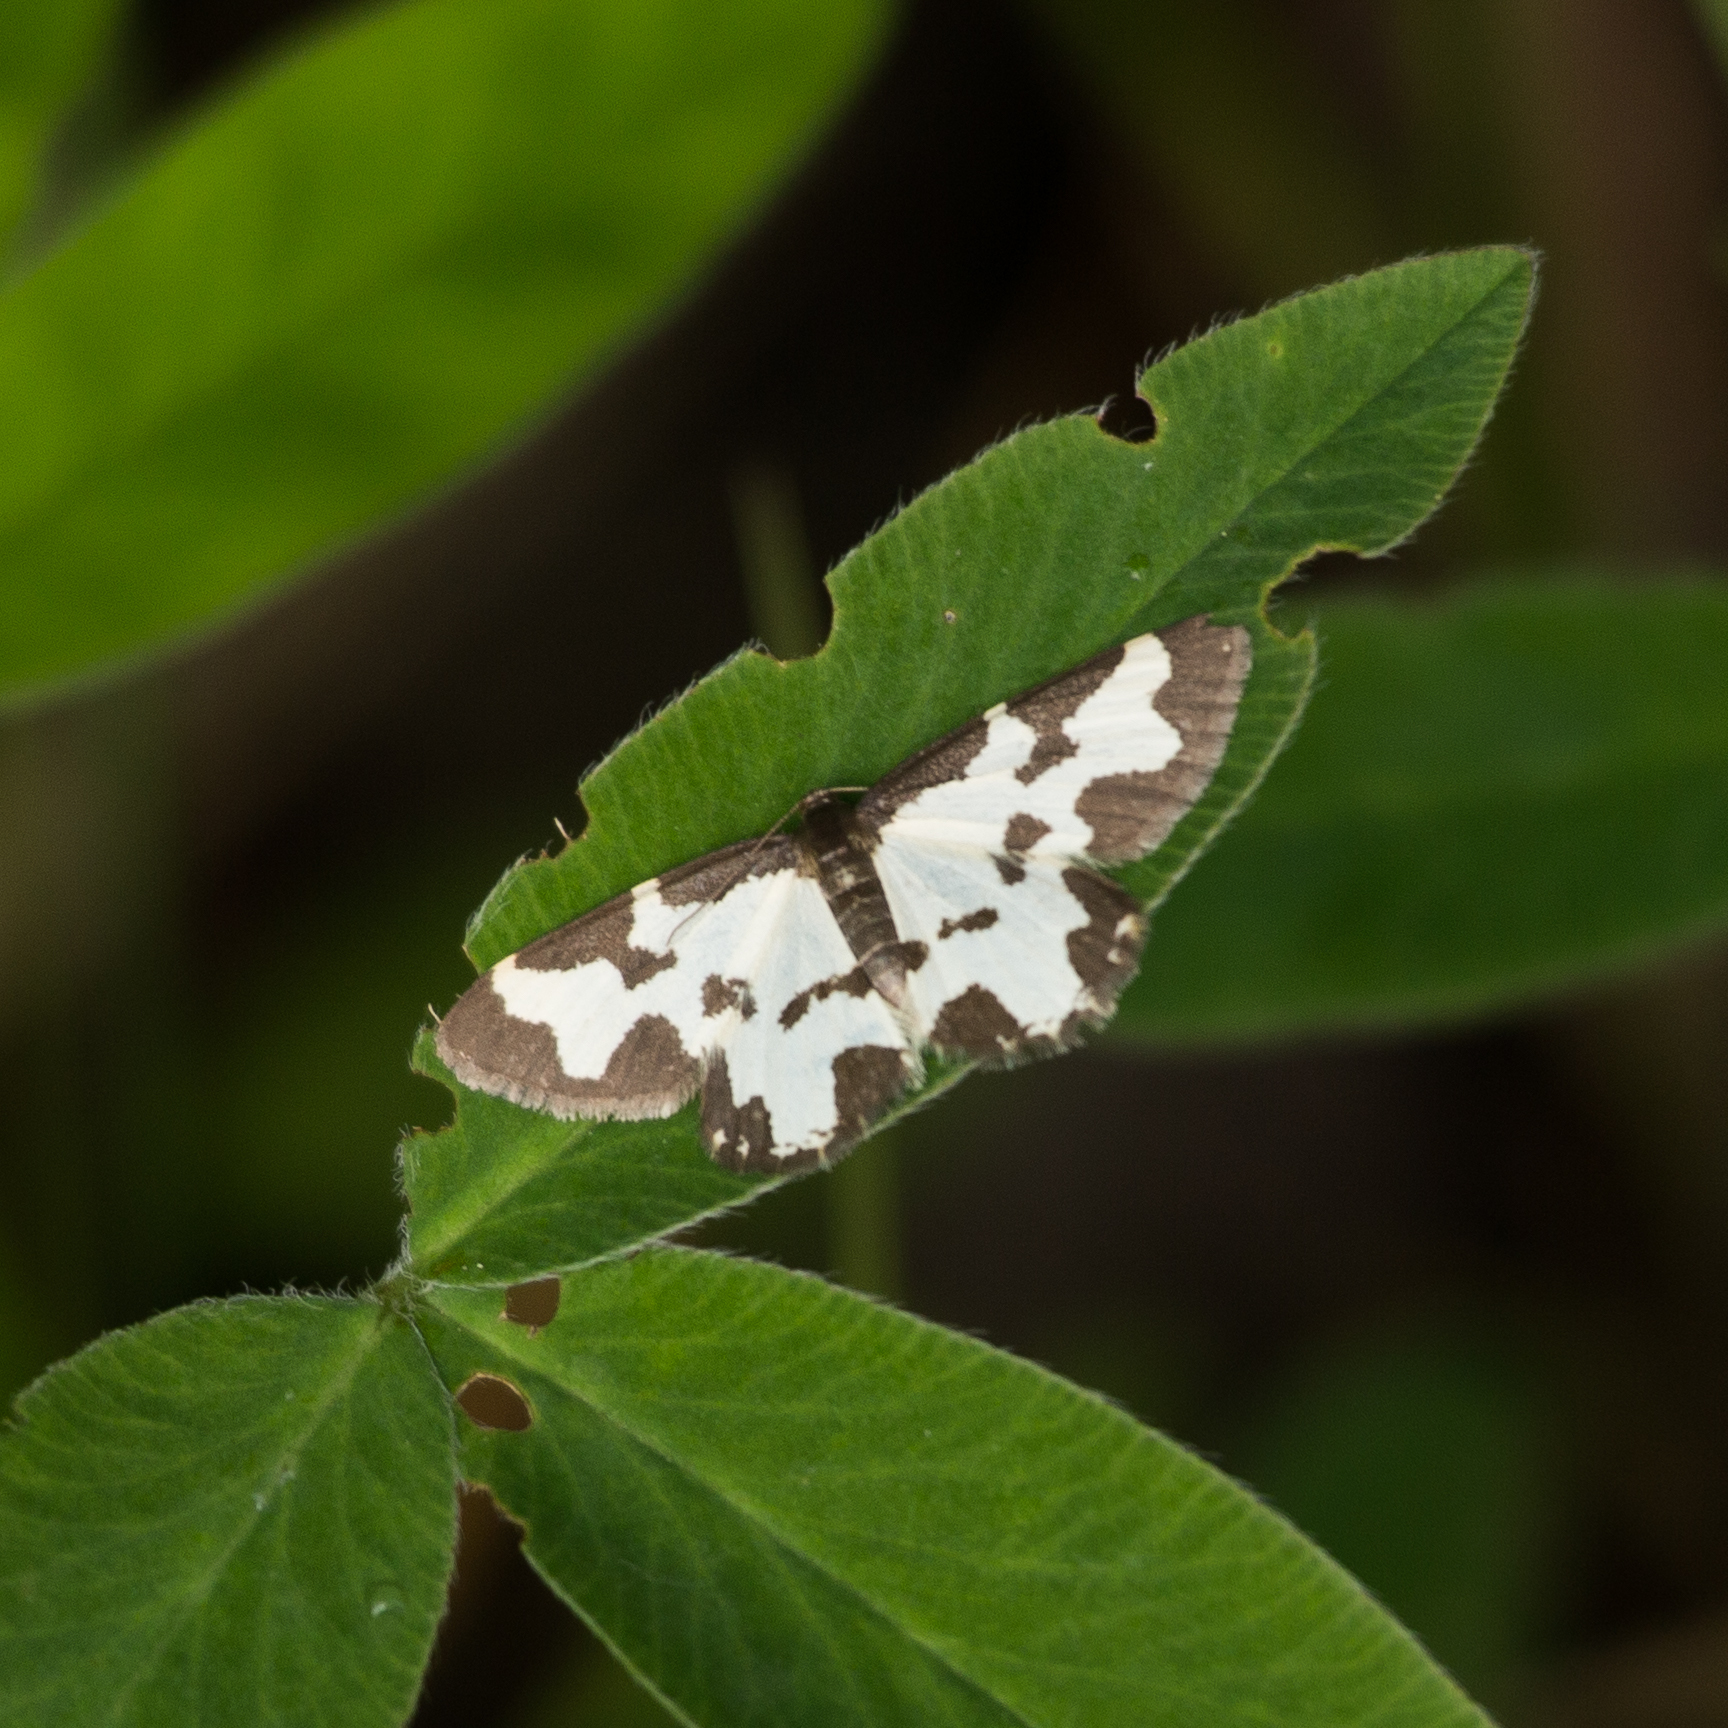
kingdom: Animalia
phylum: Arthropoda
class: Insecta
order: Lepidoptera
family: Geometridae
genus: Lomaspilis
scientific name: Lomaspilis marginata
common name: Clouded border
